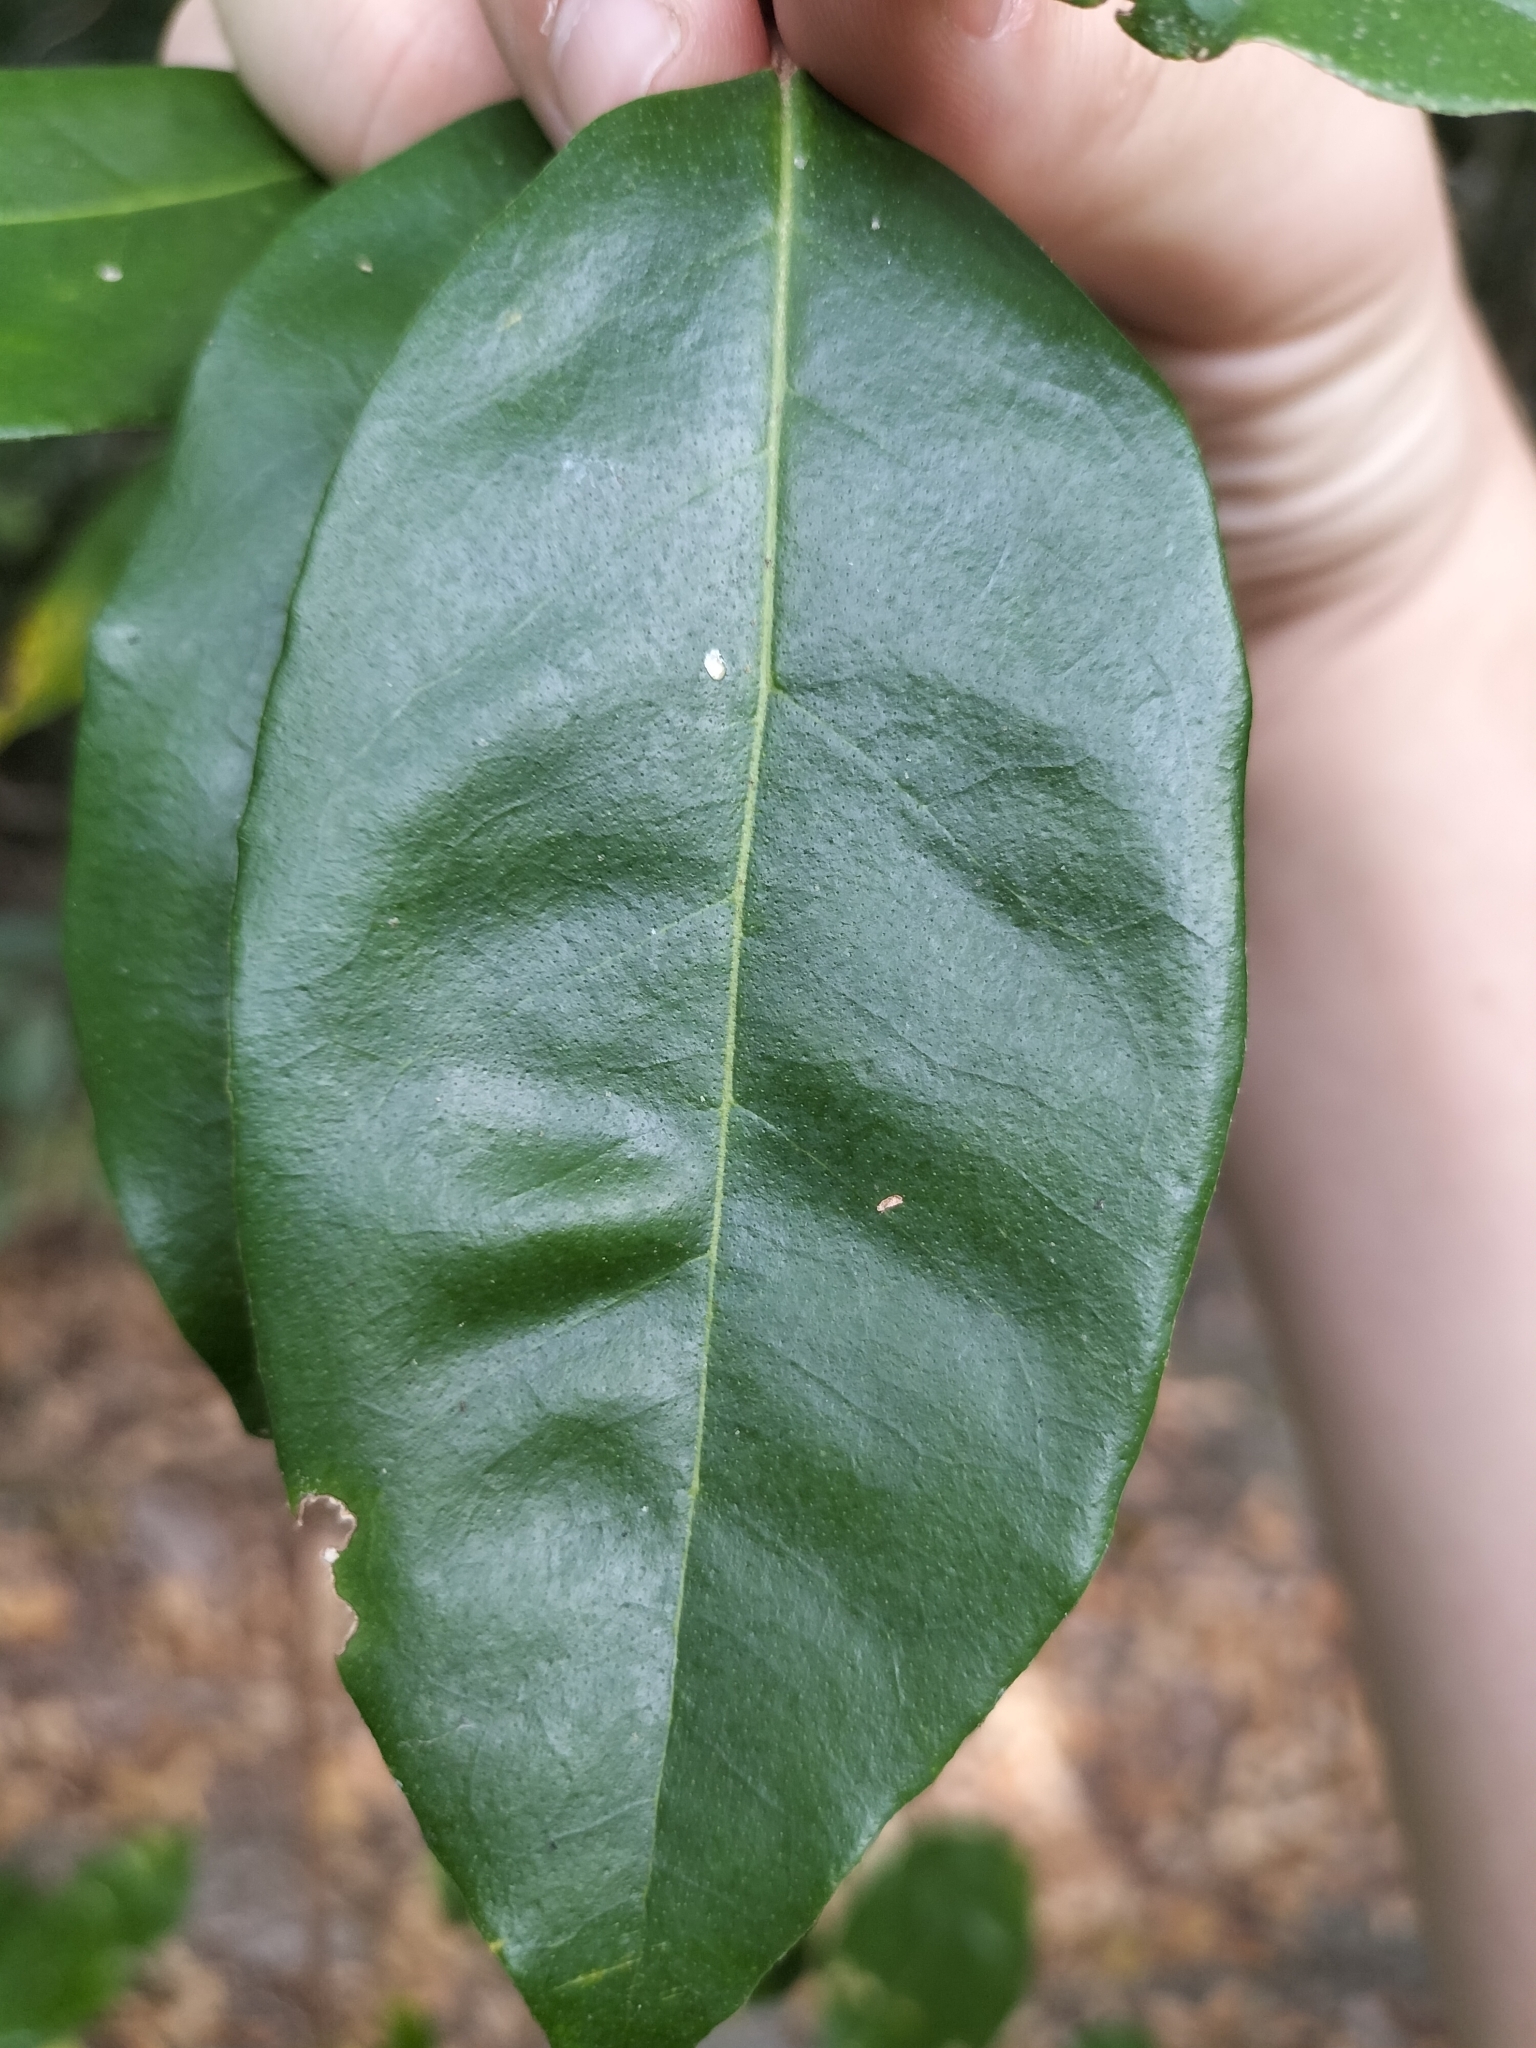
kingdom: Plantae
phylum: Tracheophyta
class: Magnoliopsida
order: Rosales
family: Elaeagnaceae
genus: Elaeagnus
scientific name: Elaeagnus triflora
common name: Millaa millaa-vine
